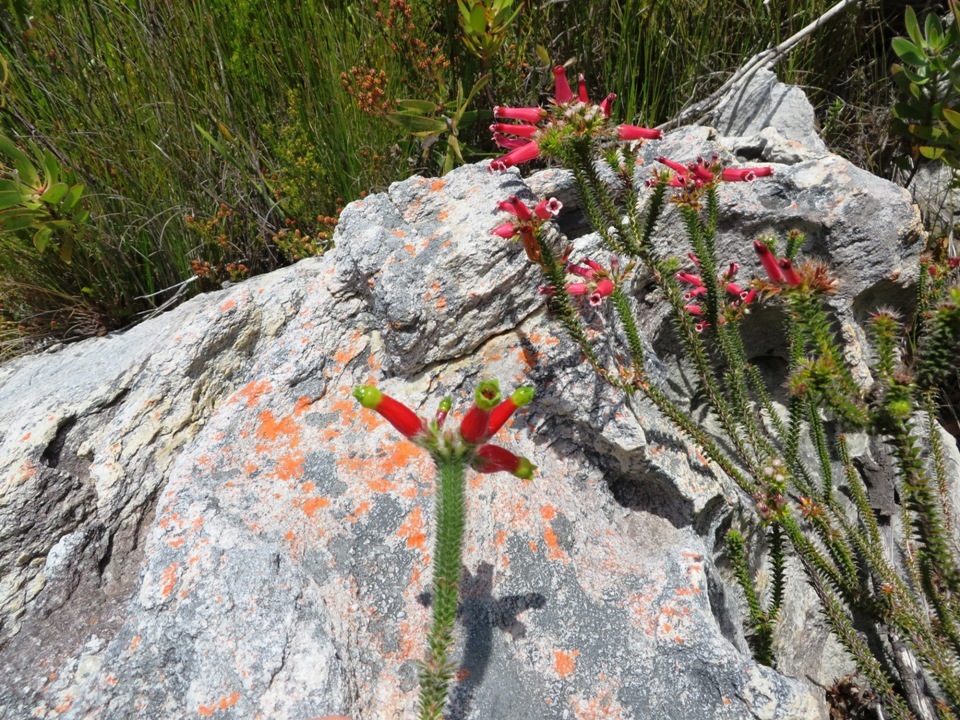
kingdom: Plantae
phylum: Tracheophyta
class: Magnoliopsida
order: Ericales
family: Ericaceae
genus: Erica
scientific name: Erica massonii
